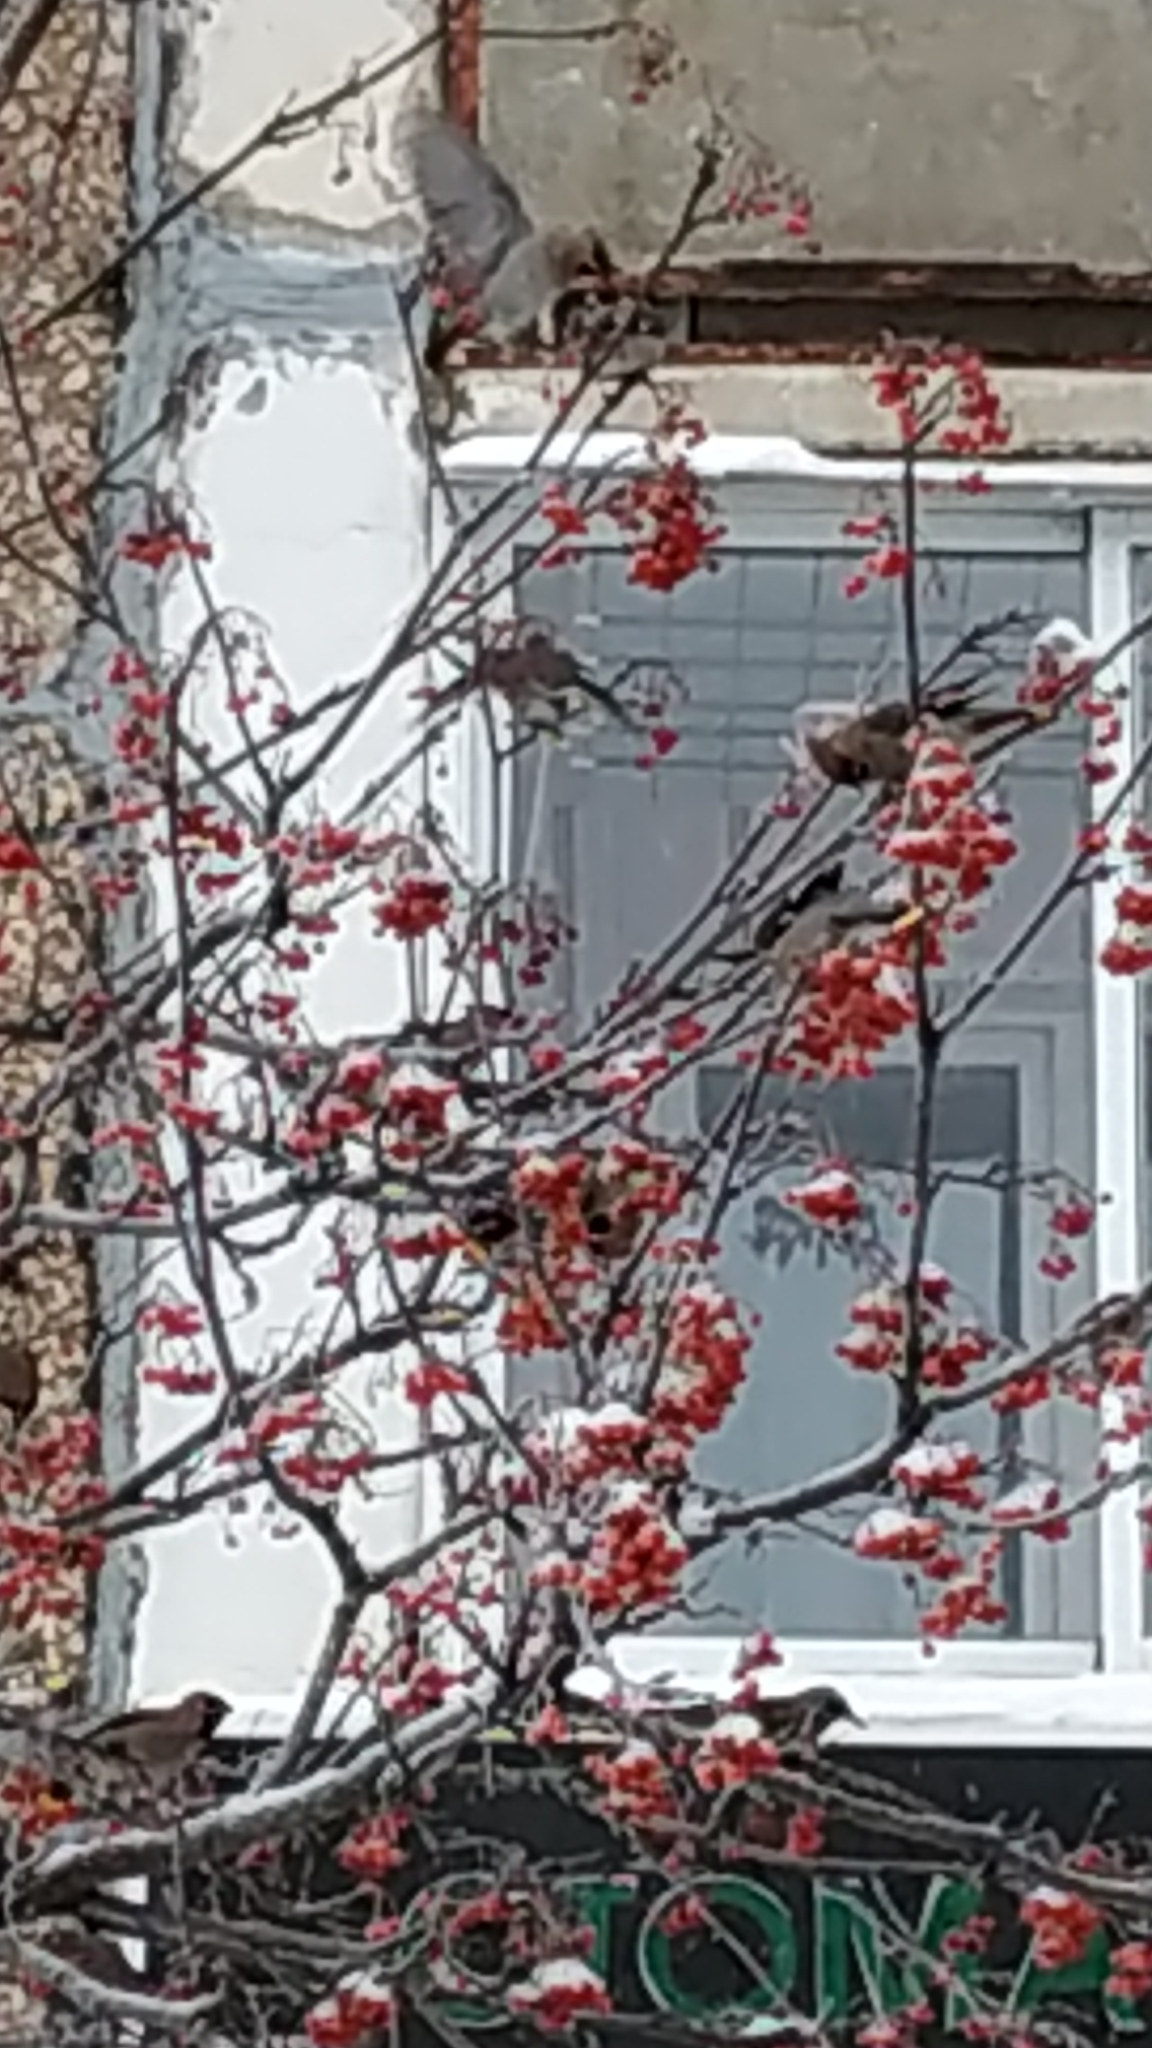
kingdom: Animalia
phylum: Chordata
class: Aves
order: Passeriformes
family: Turdidae
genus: Turdus
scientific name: Turdus pilaris
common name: Fieldfare
